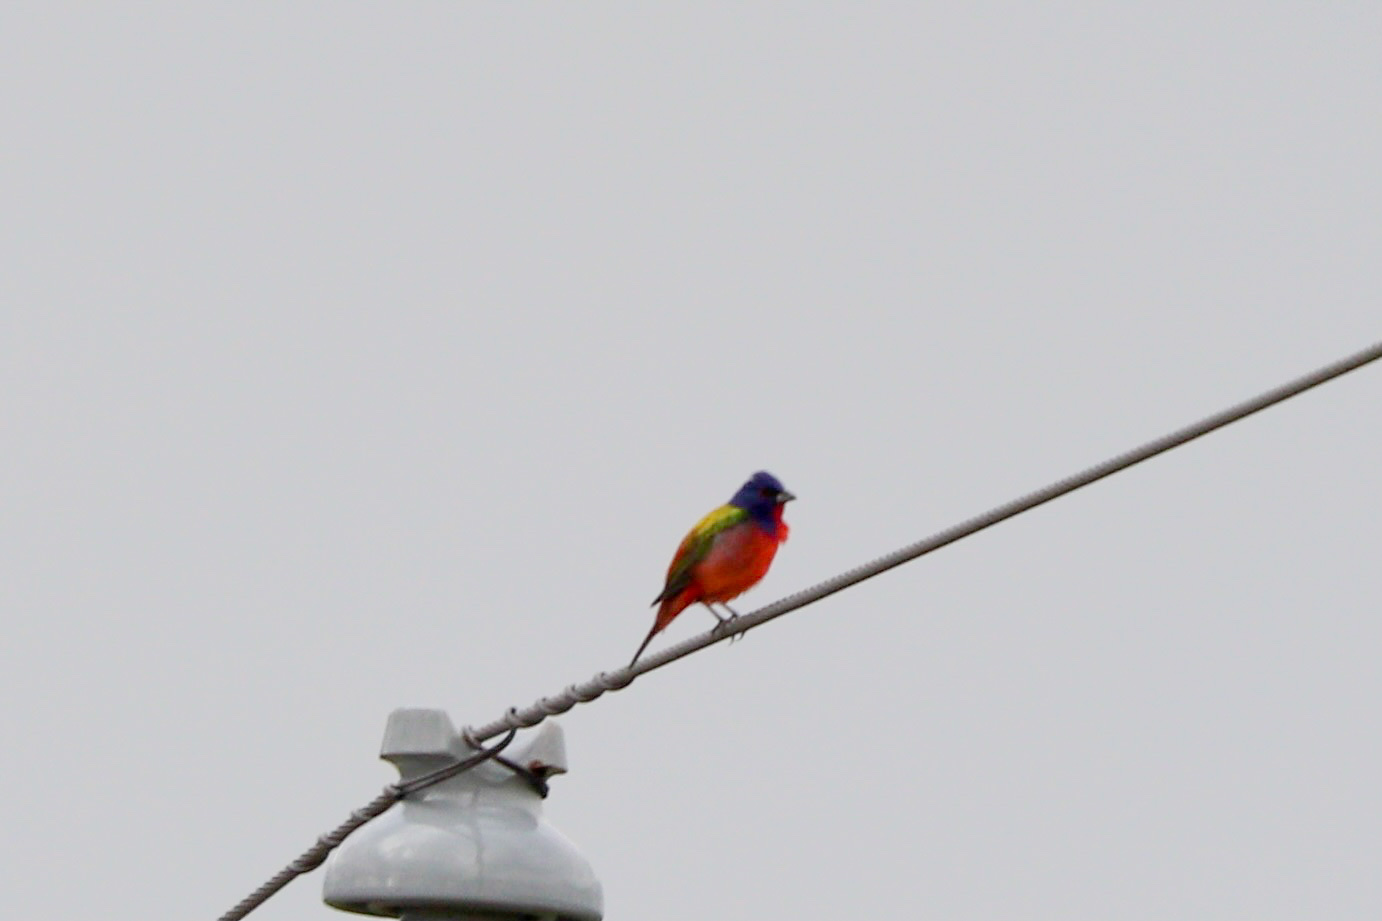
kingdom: Animalia
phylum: Chordata
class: Aves
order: Passeriformes
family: Cardinalidae
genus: Passerina
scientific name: Passerina ciris
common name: Painted bunting
